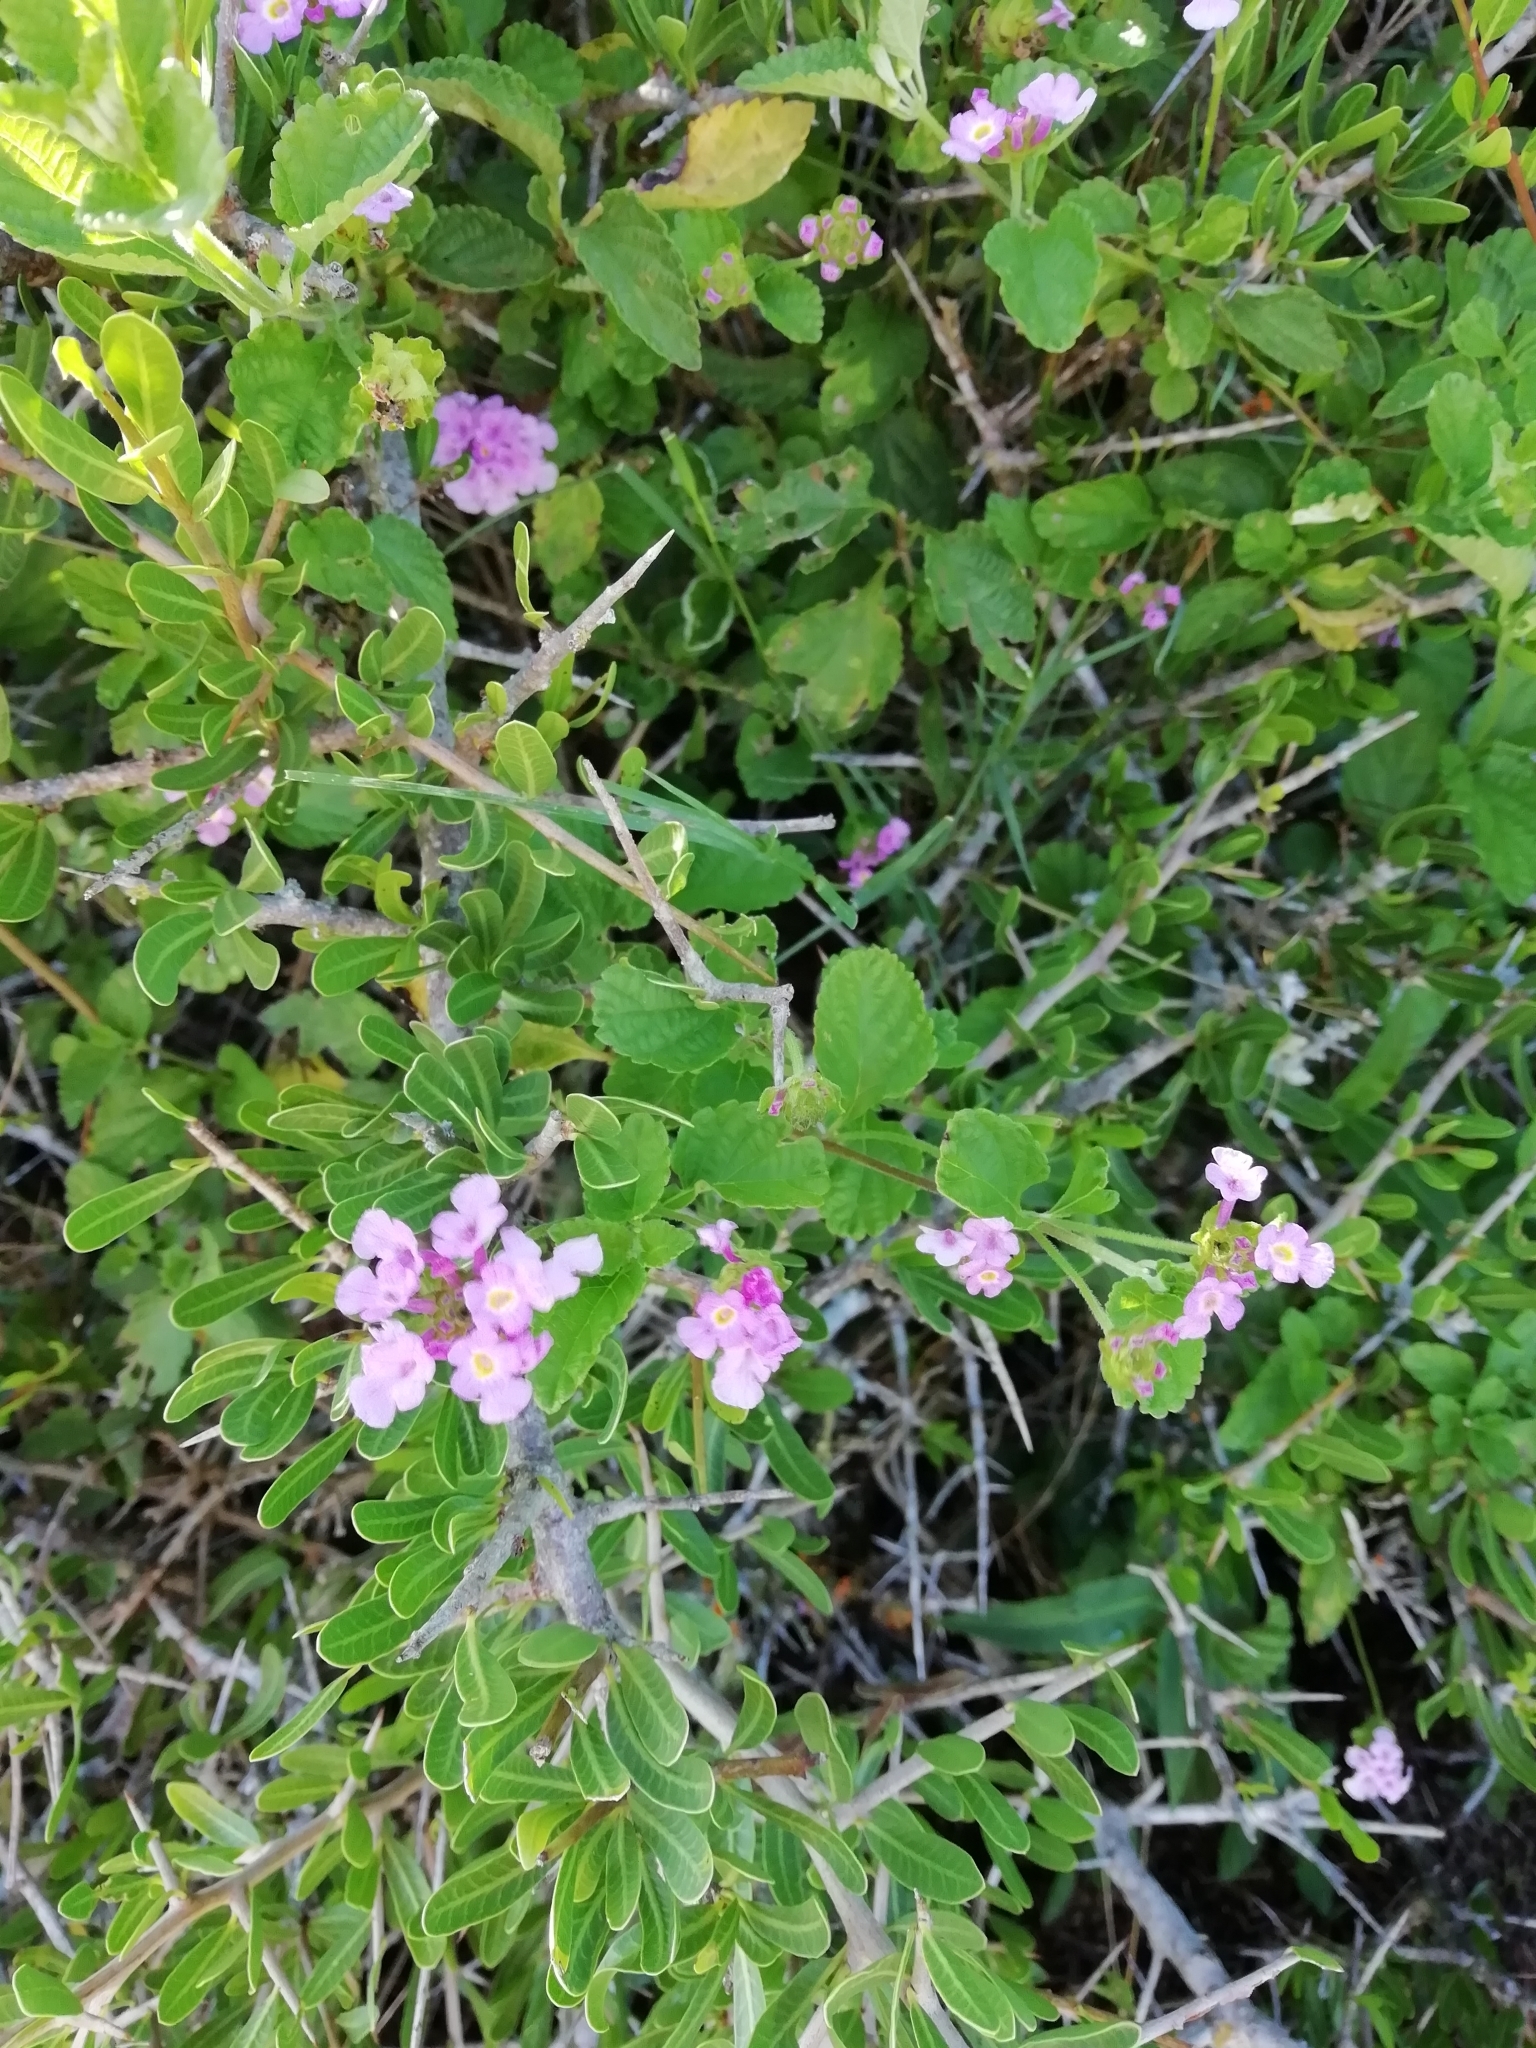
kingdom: Plantae
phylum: Tracheophyta
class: Magnoliopsida
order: Lamiales
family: Verbenaceae
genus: Lantana
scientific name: Lantana montevidensis
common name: Trailing shrubverbena
